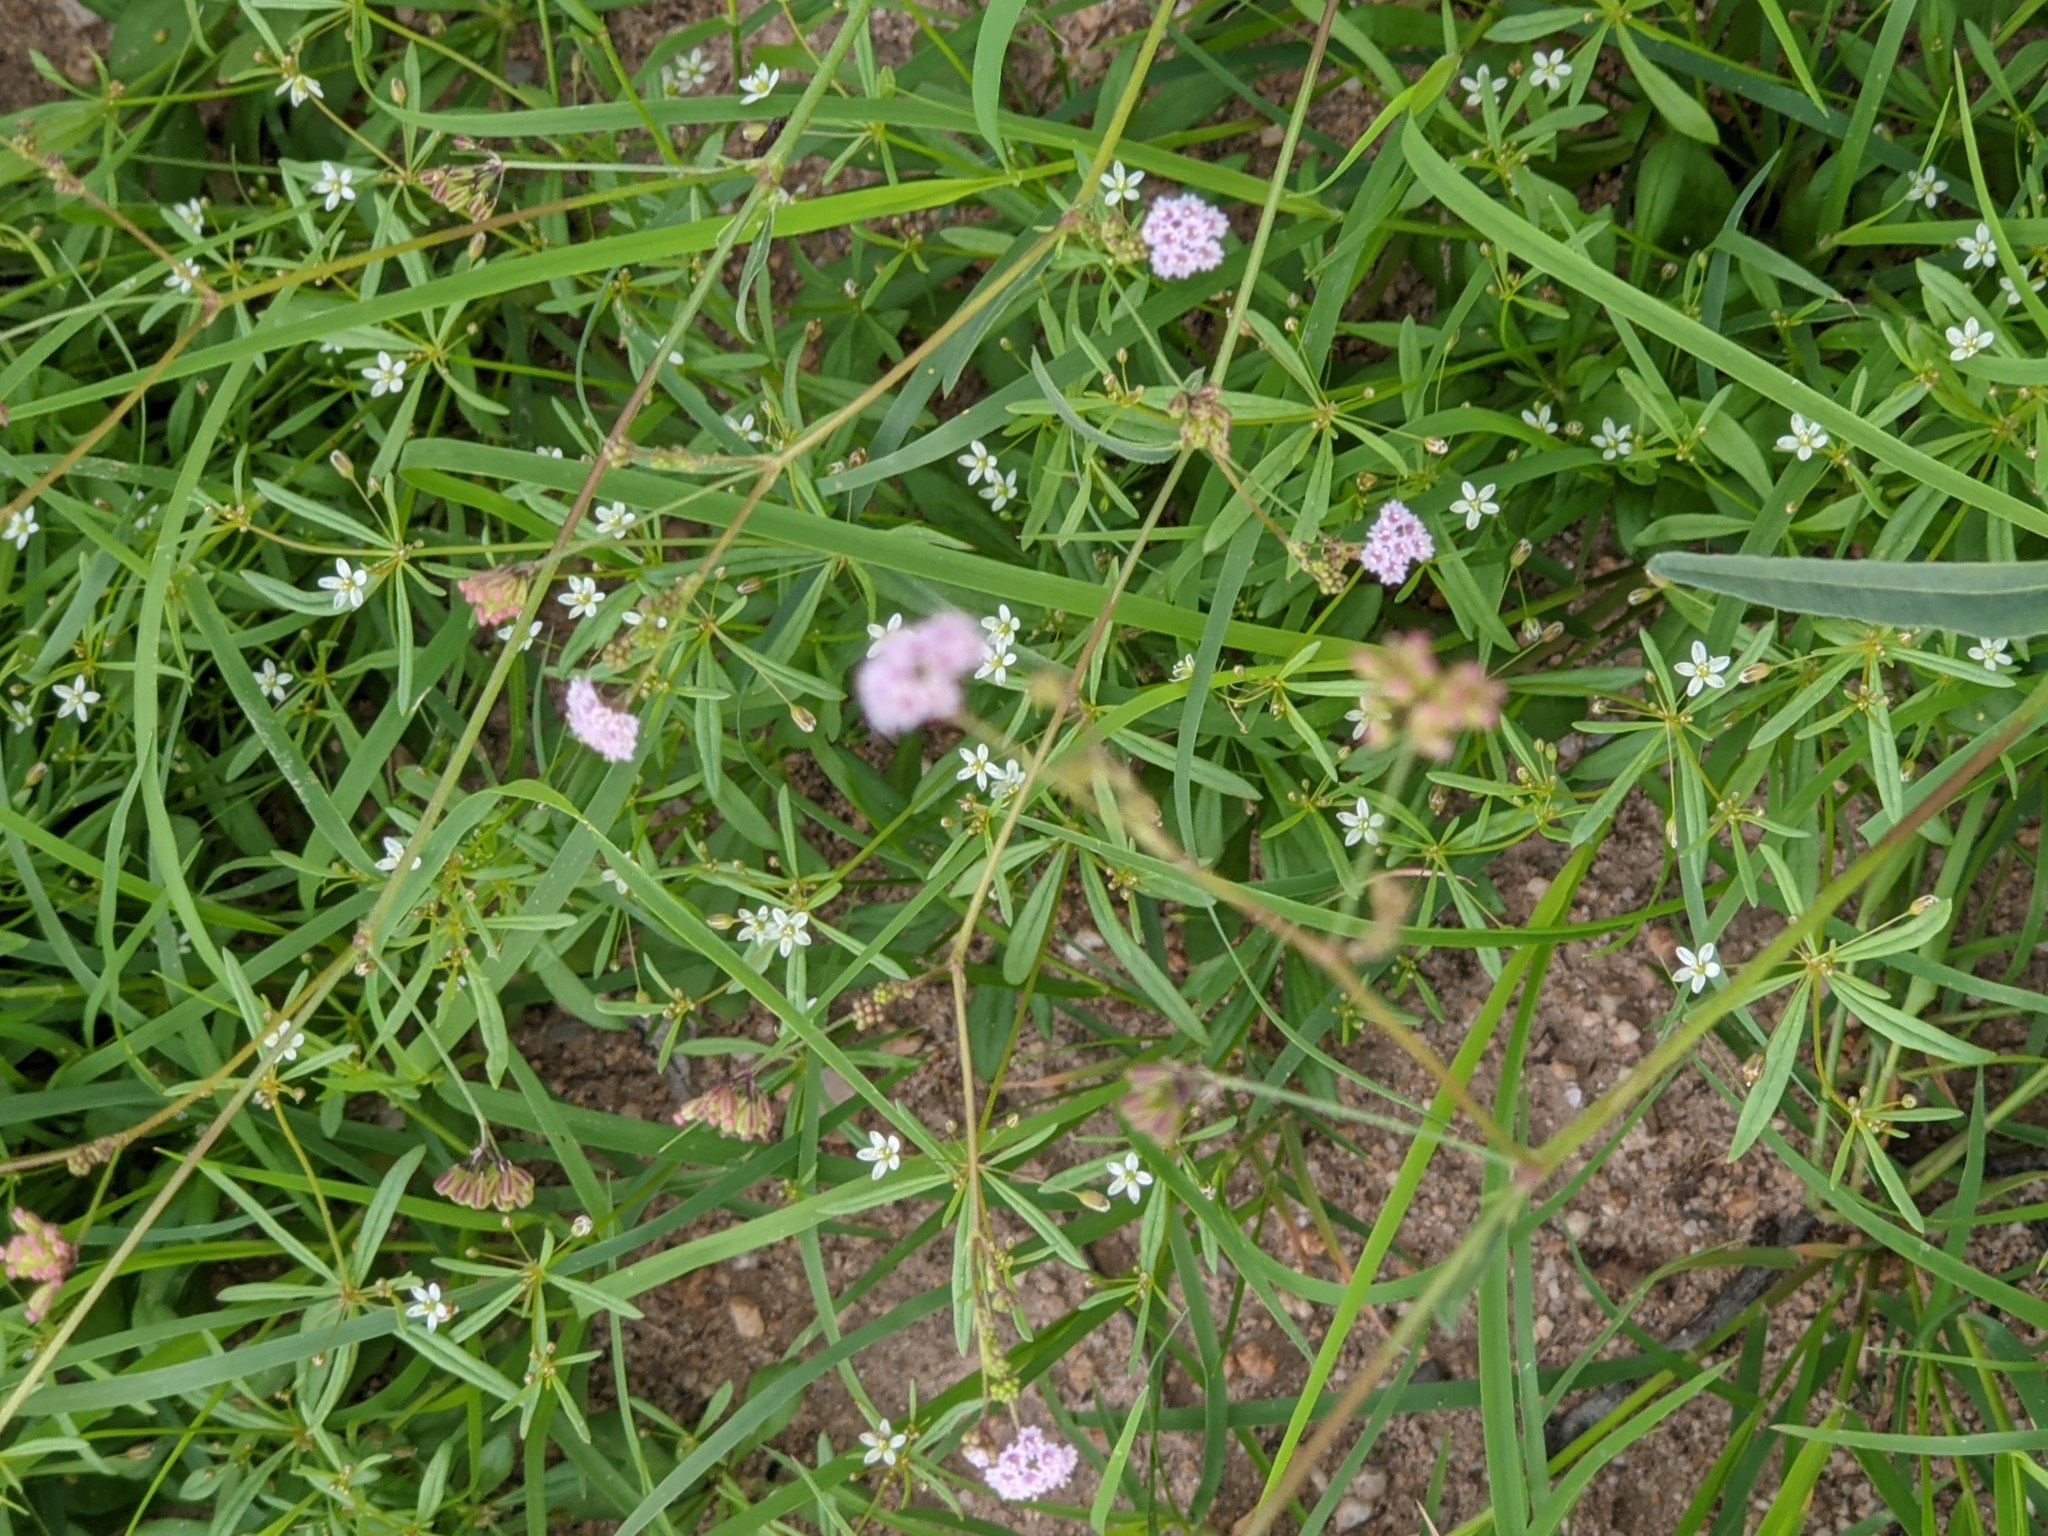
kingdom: Plantae
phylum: Tracheophyta
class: Magnoliopsida
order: Caryophyllales
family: Molluginaceae
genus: Mollugo
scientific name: Mollugo verticillata
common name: Green carpetweed
